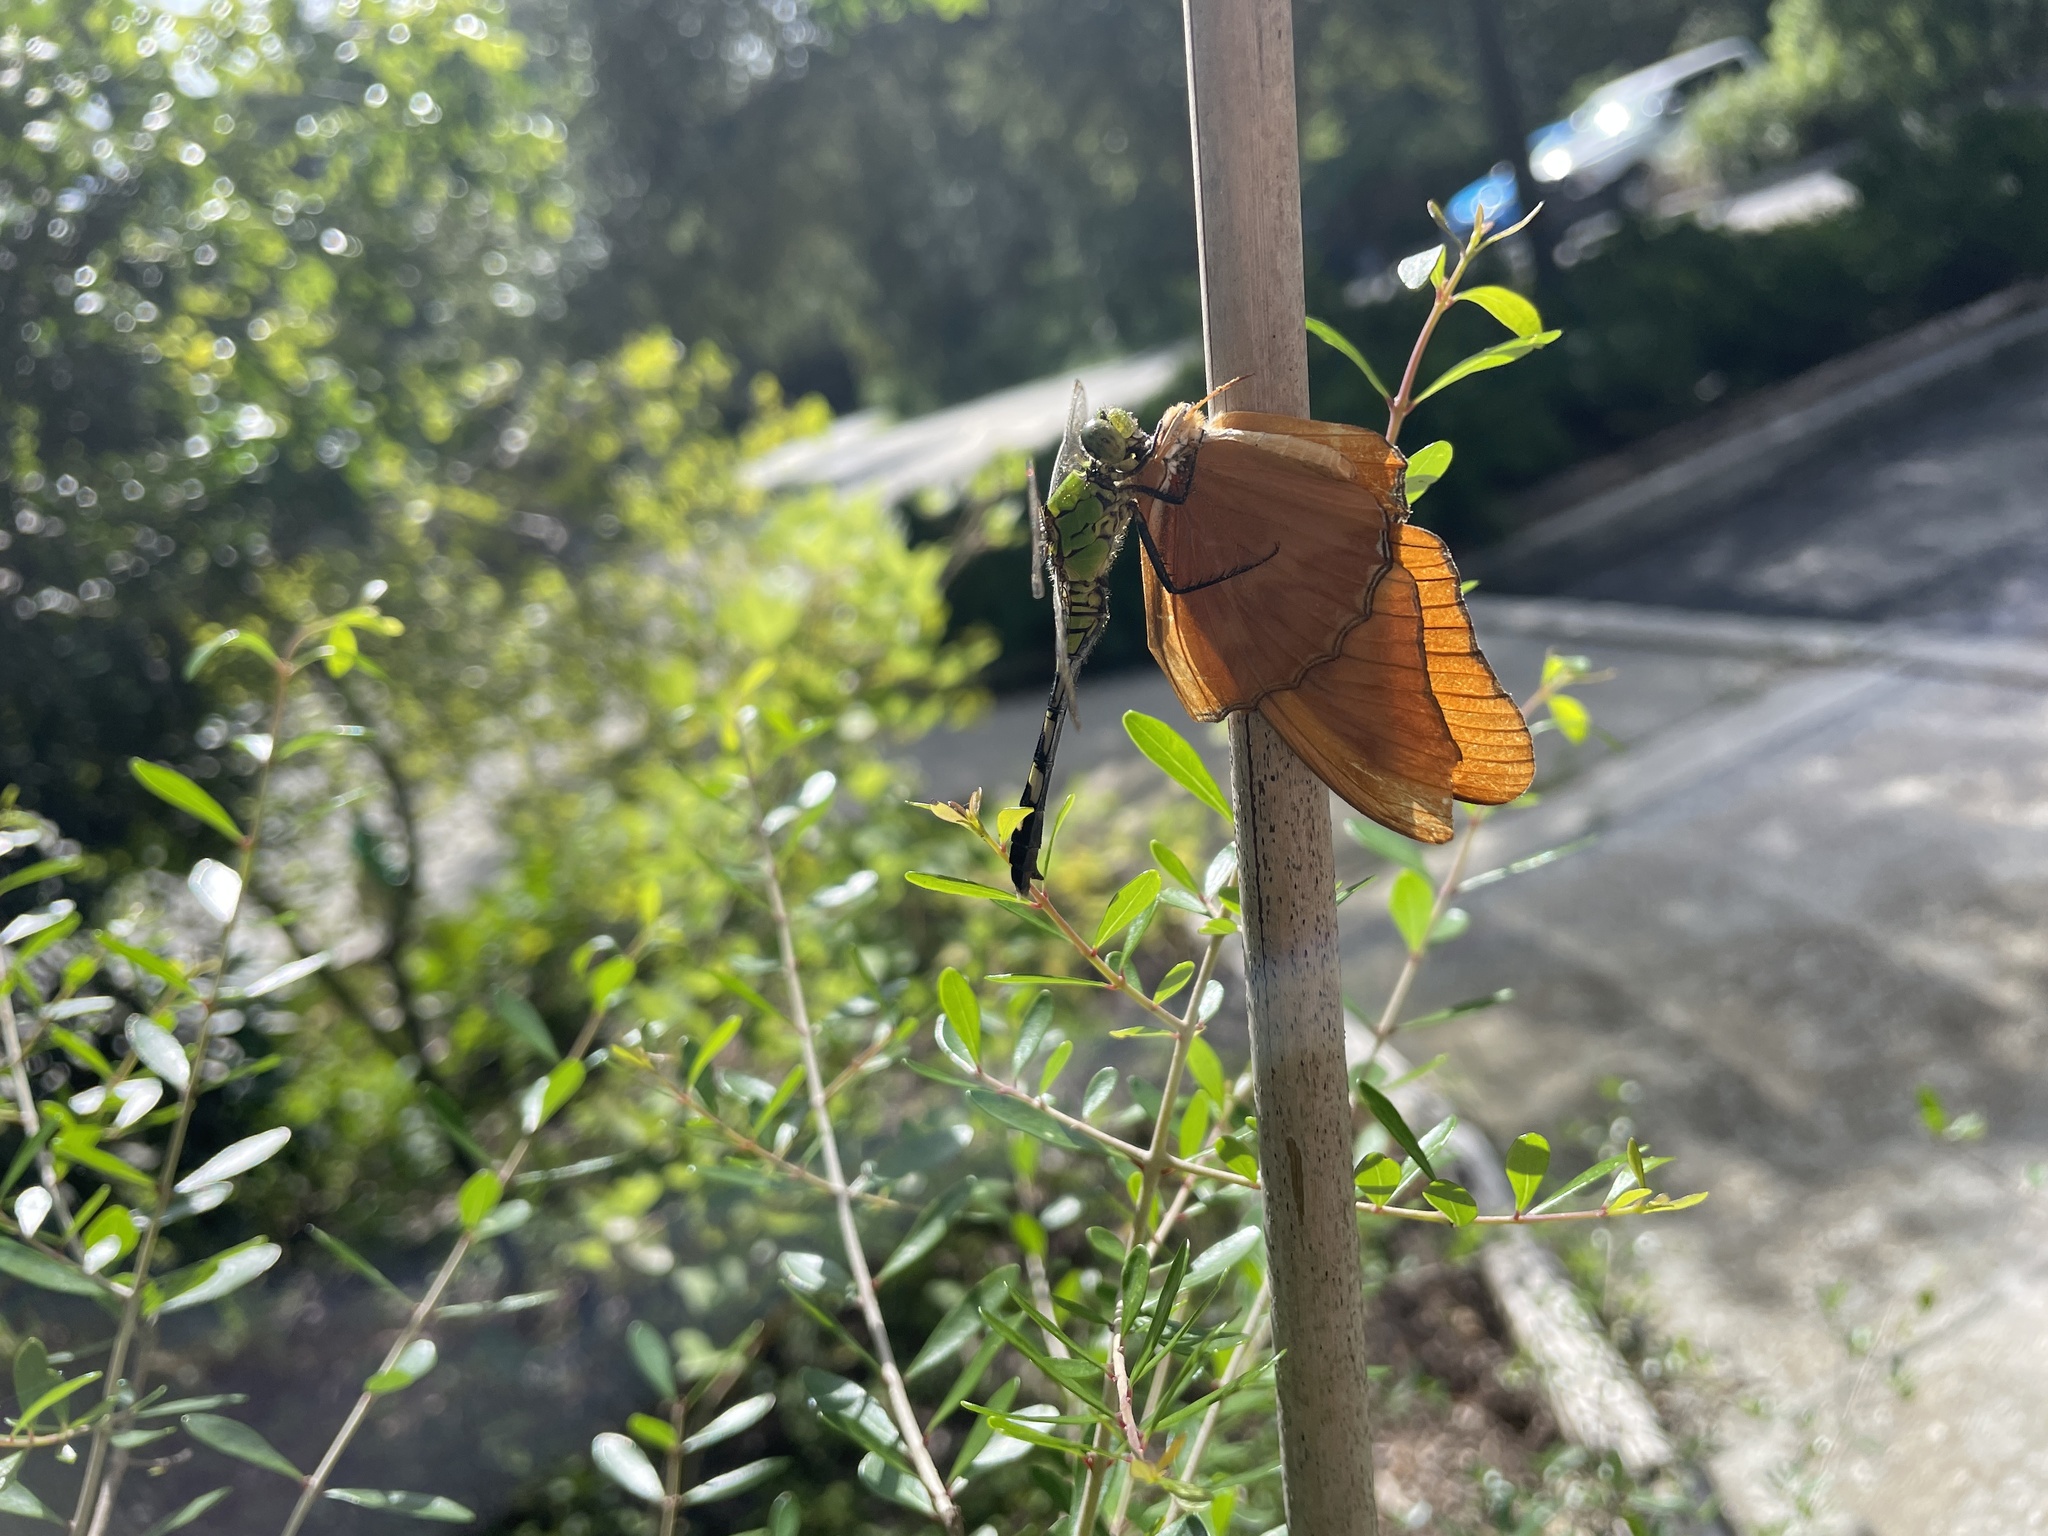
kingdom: Animalia
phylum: Arthropoda
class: Insecta
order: Lepidoptera
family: Nymphalidae
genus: Dryas
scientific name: Dryas iulia
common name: Flambeau
